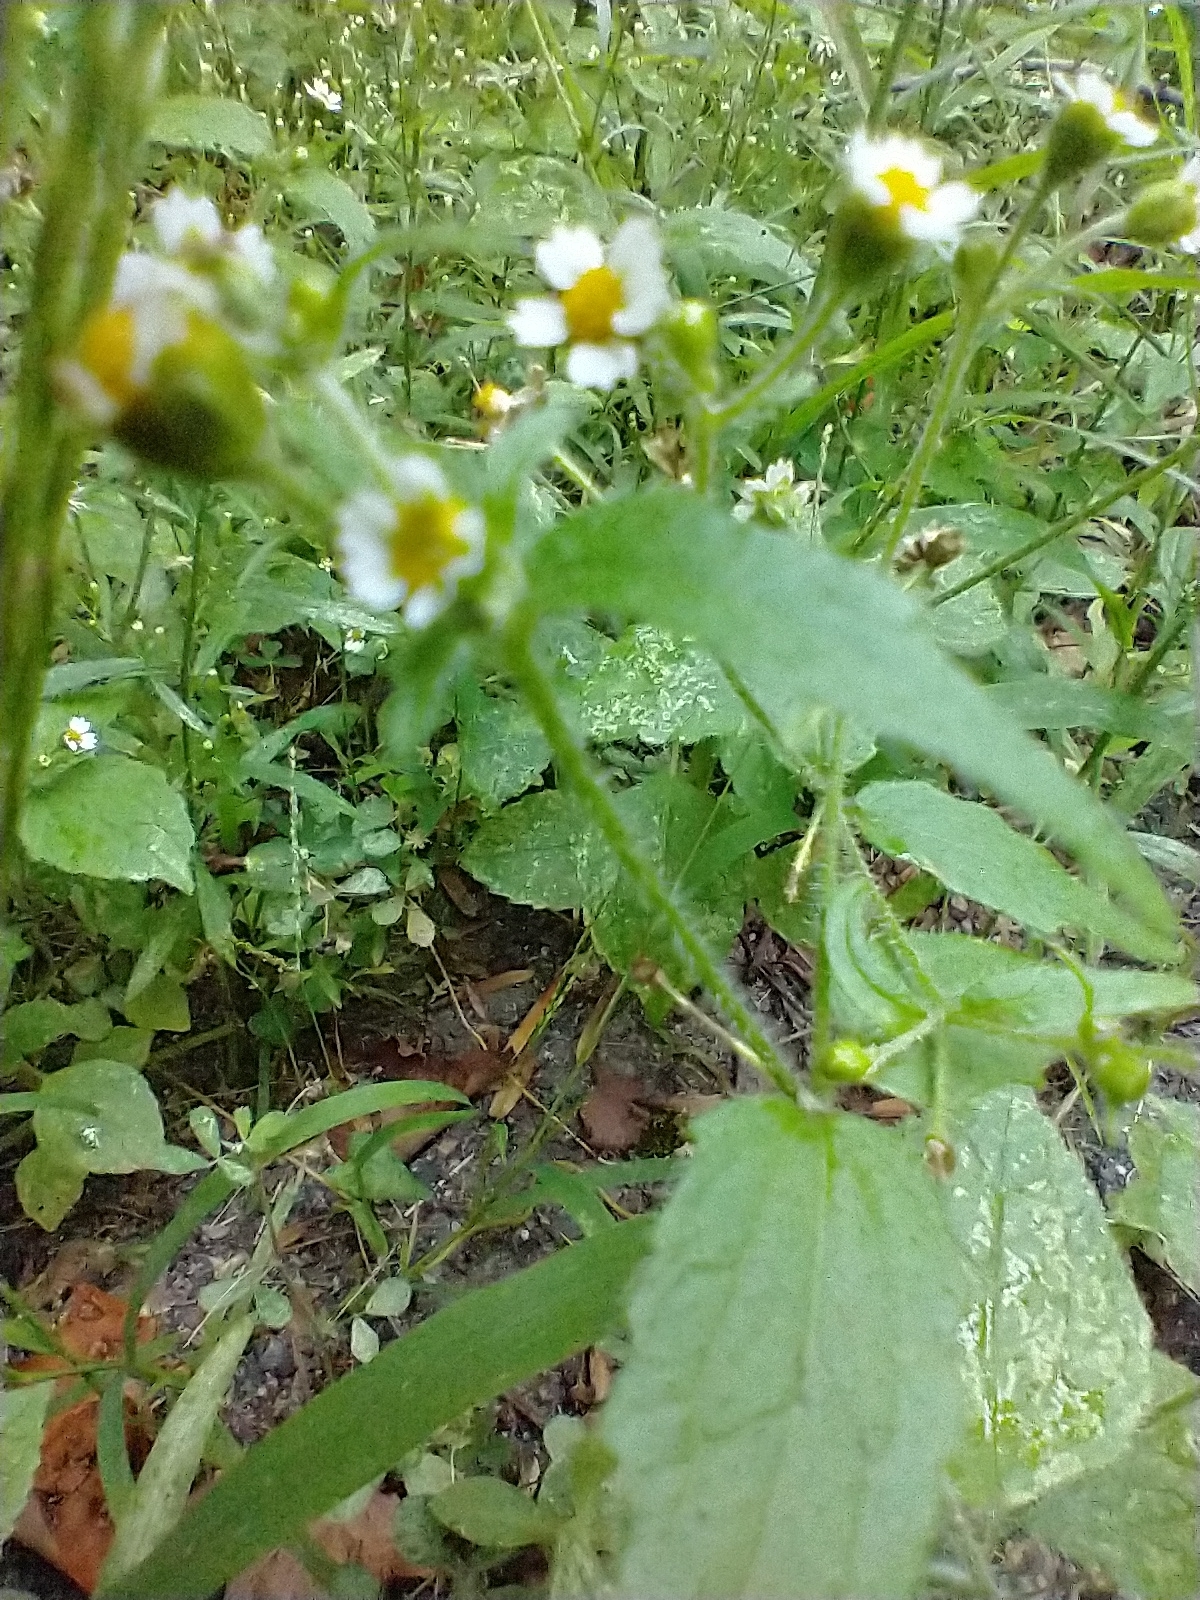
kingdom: Plantae
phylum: Tracheophyta
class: Magnoliopsida
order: Asterales
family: Asteraceae
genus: Galinsoga
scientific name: Galinsoga quadriradiata
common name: Shaggy soldier
